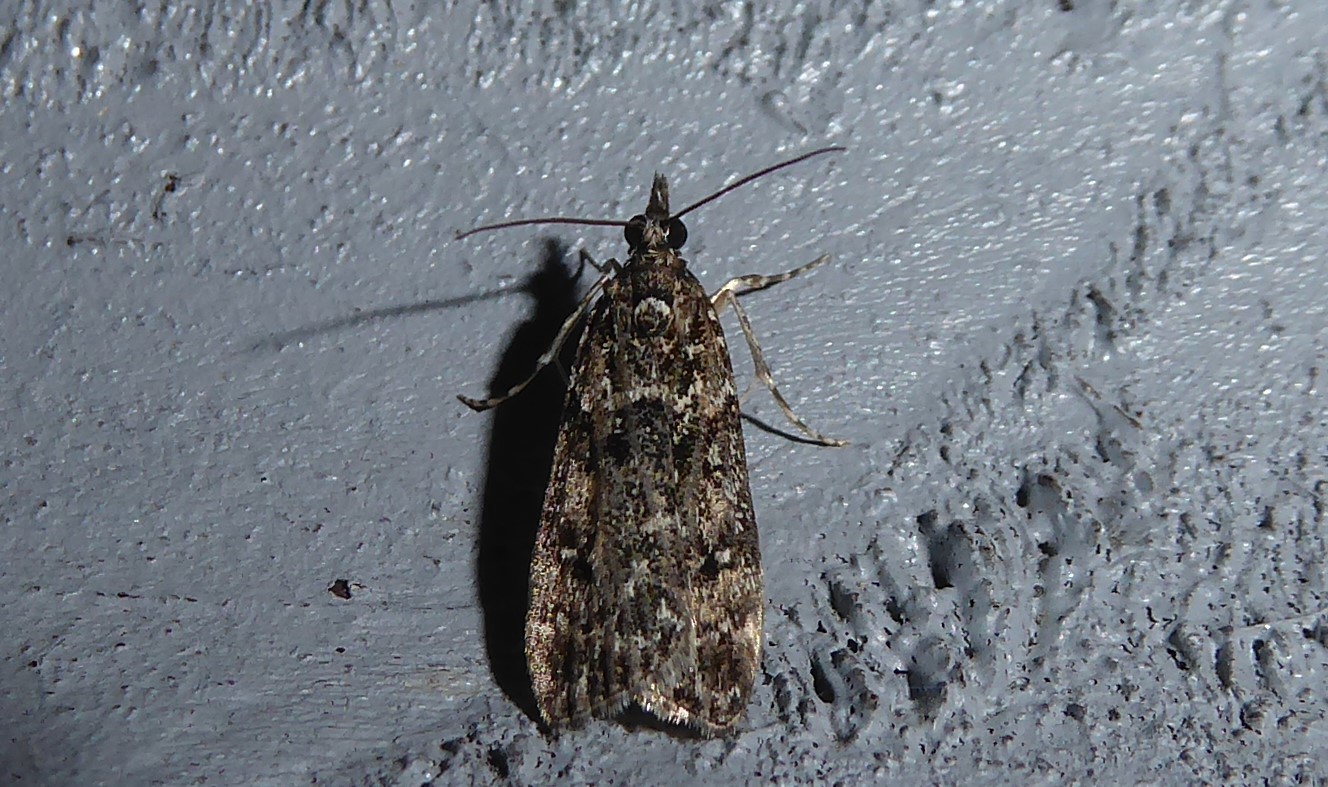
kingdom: Animalia
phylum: Arthropoda
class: Insecta
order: Lepidoptera
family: Crambidae
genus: Eudonia
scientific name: Eudonia philerga
